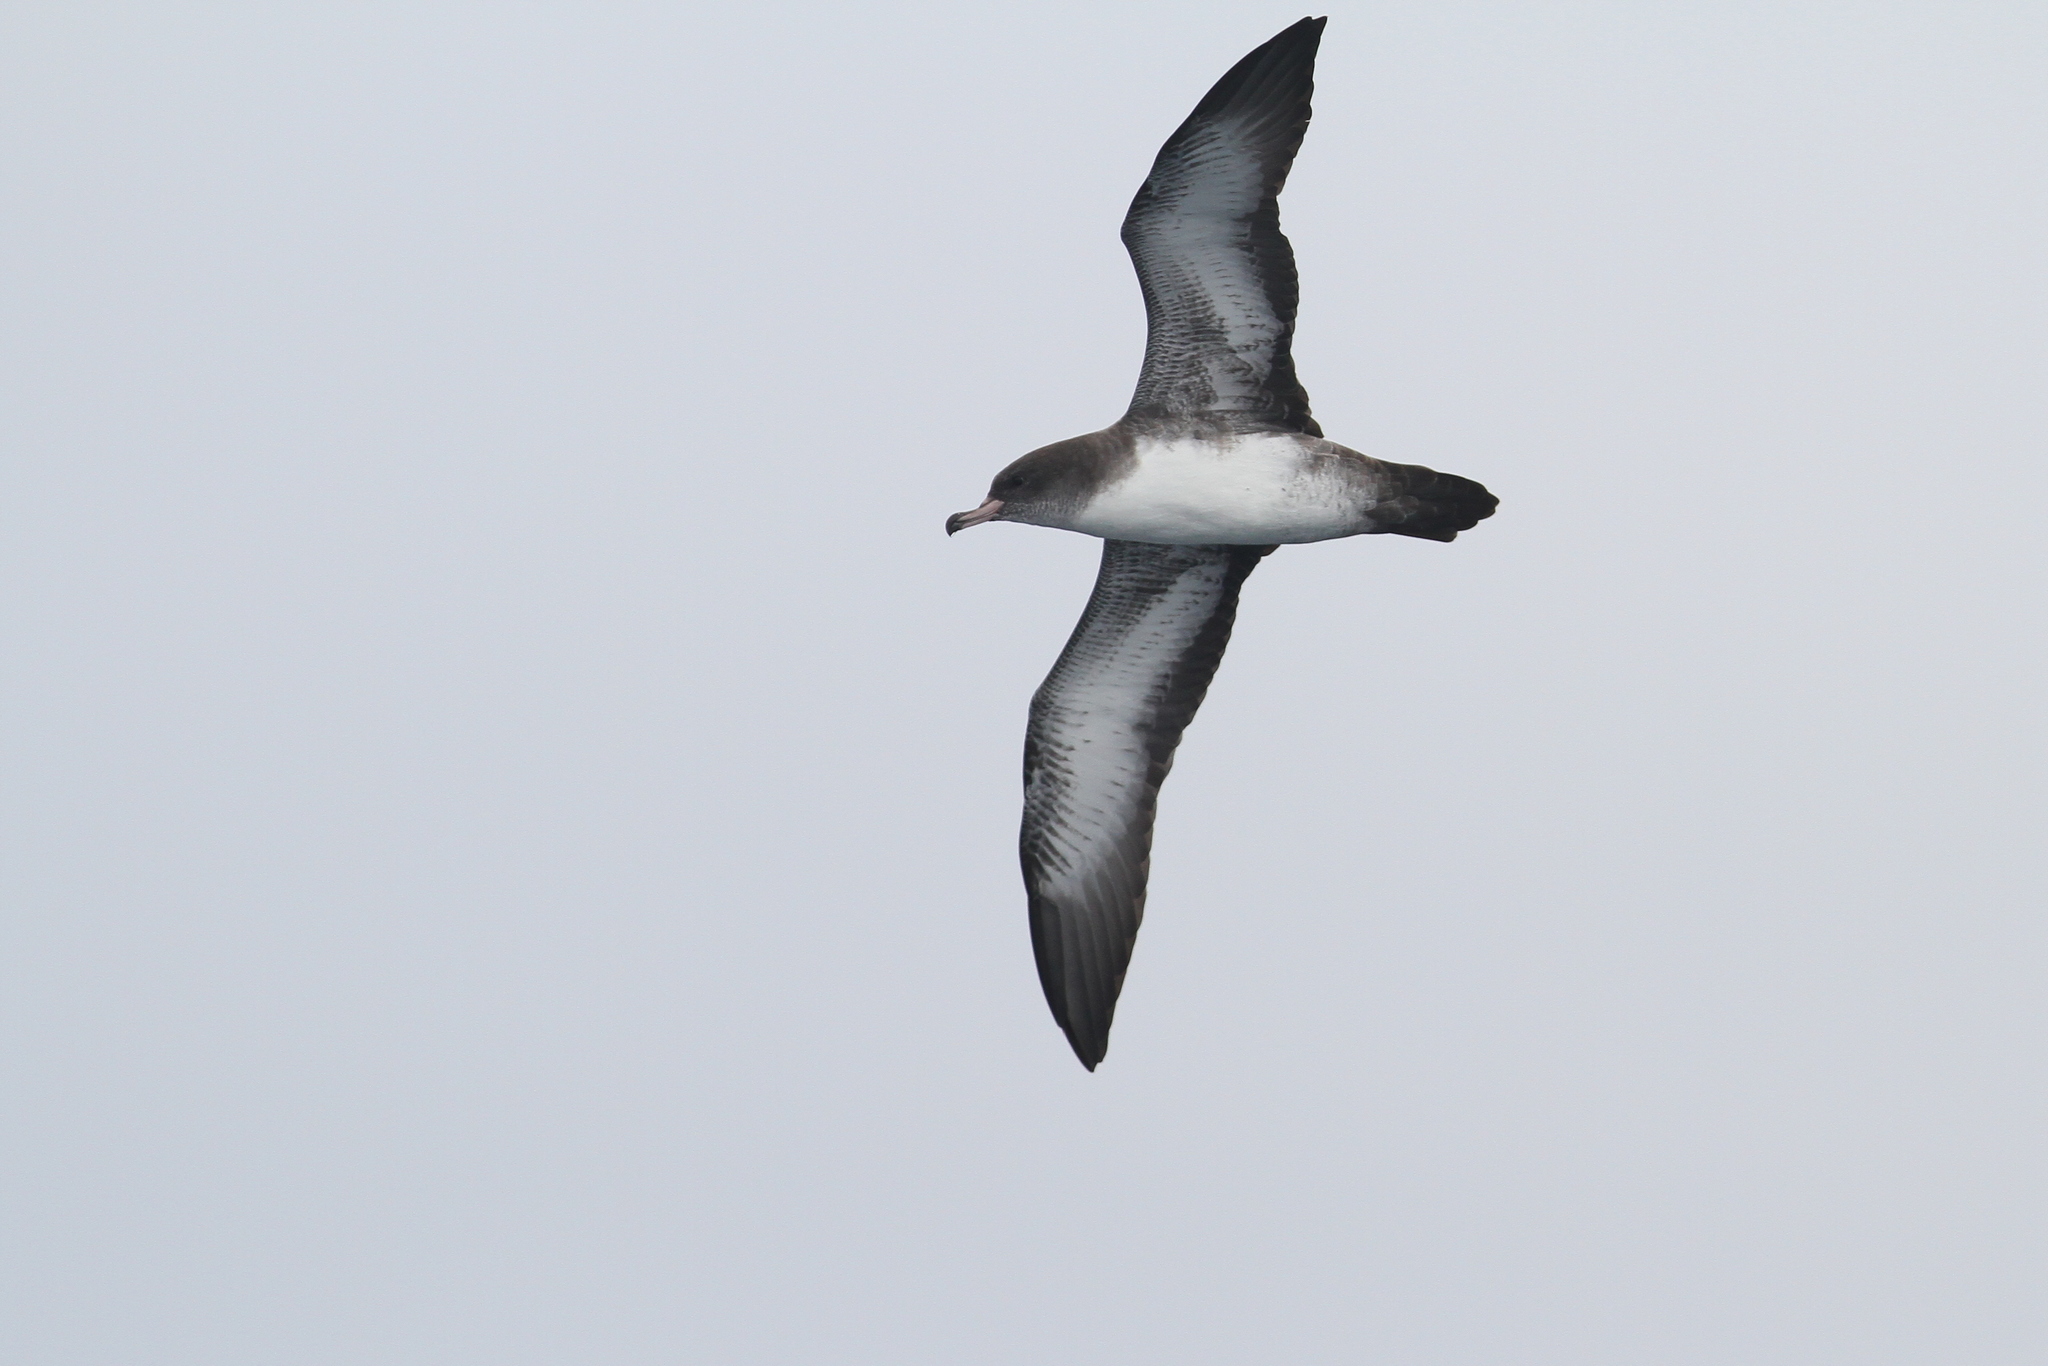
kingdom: Animalia
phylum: Chordata
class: Aves
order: Procellariiformes
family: Procellariidae
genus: Puffinus
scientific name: Puffinus creatopus
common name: Pink-footed shearwater
